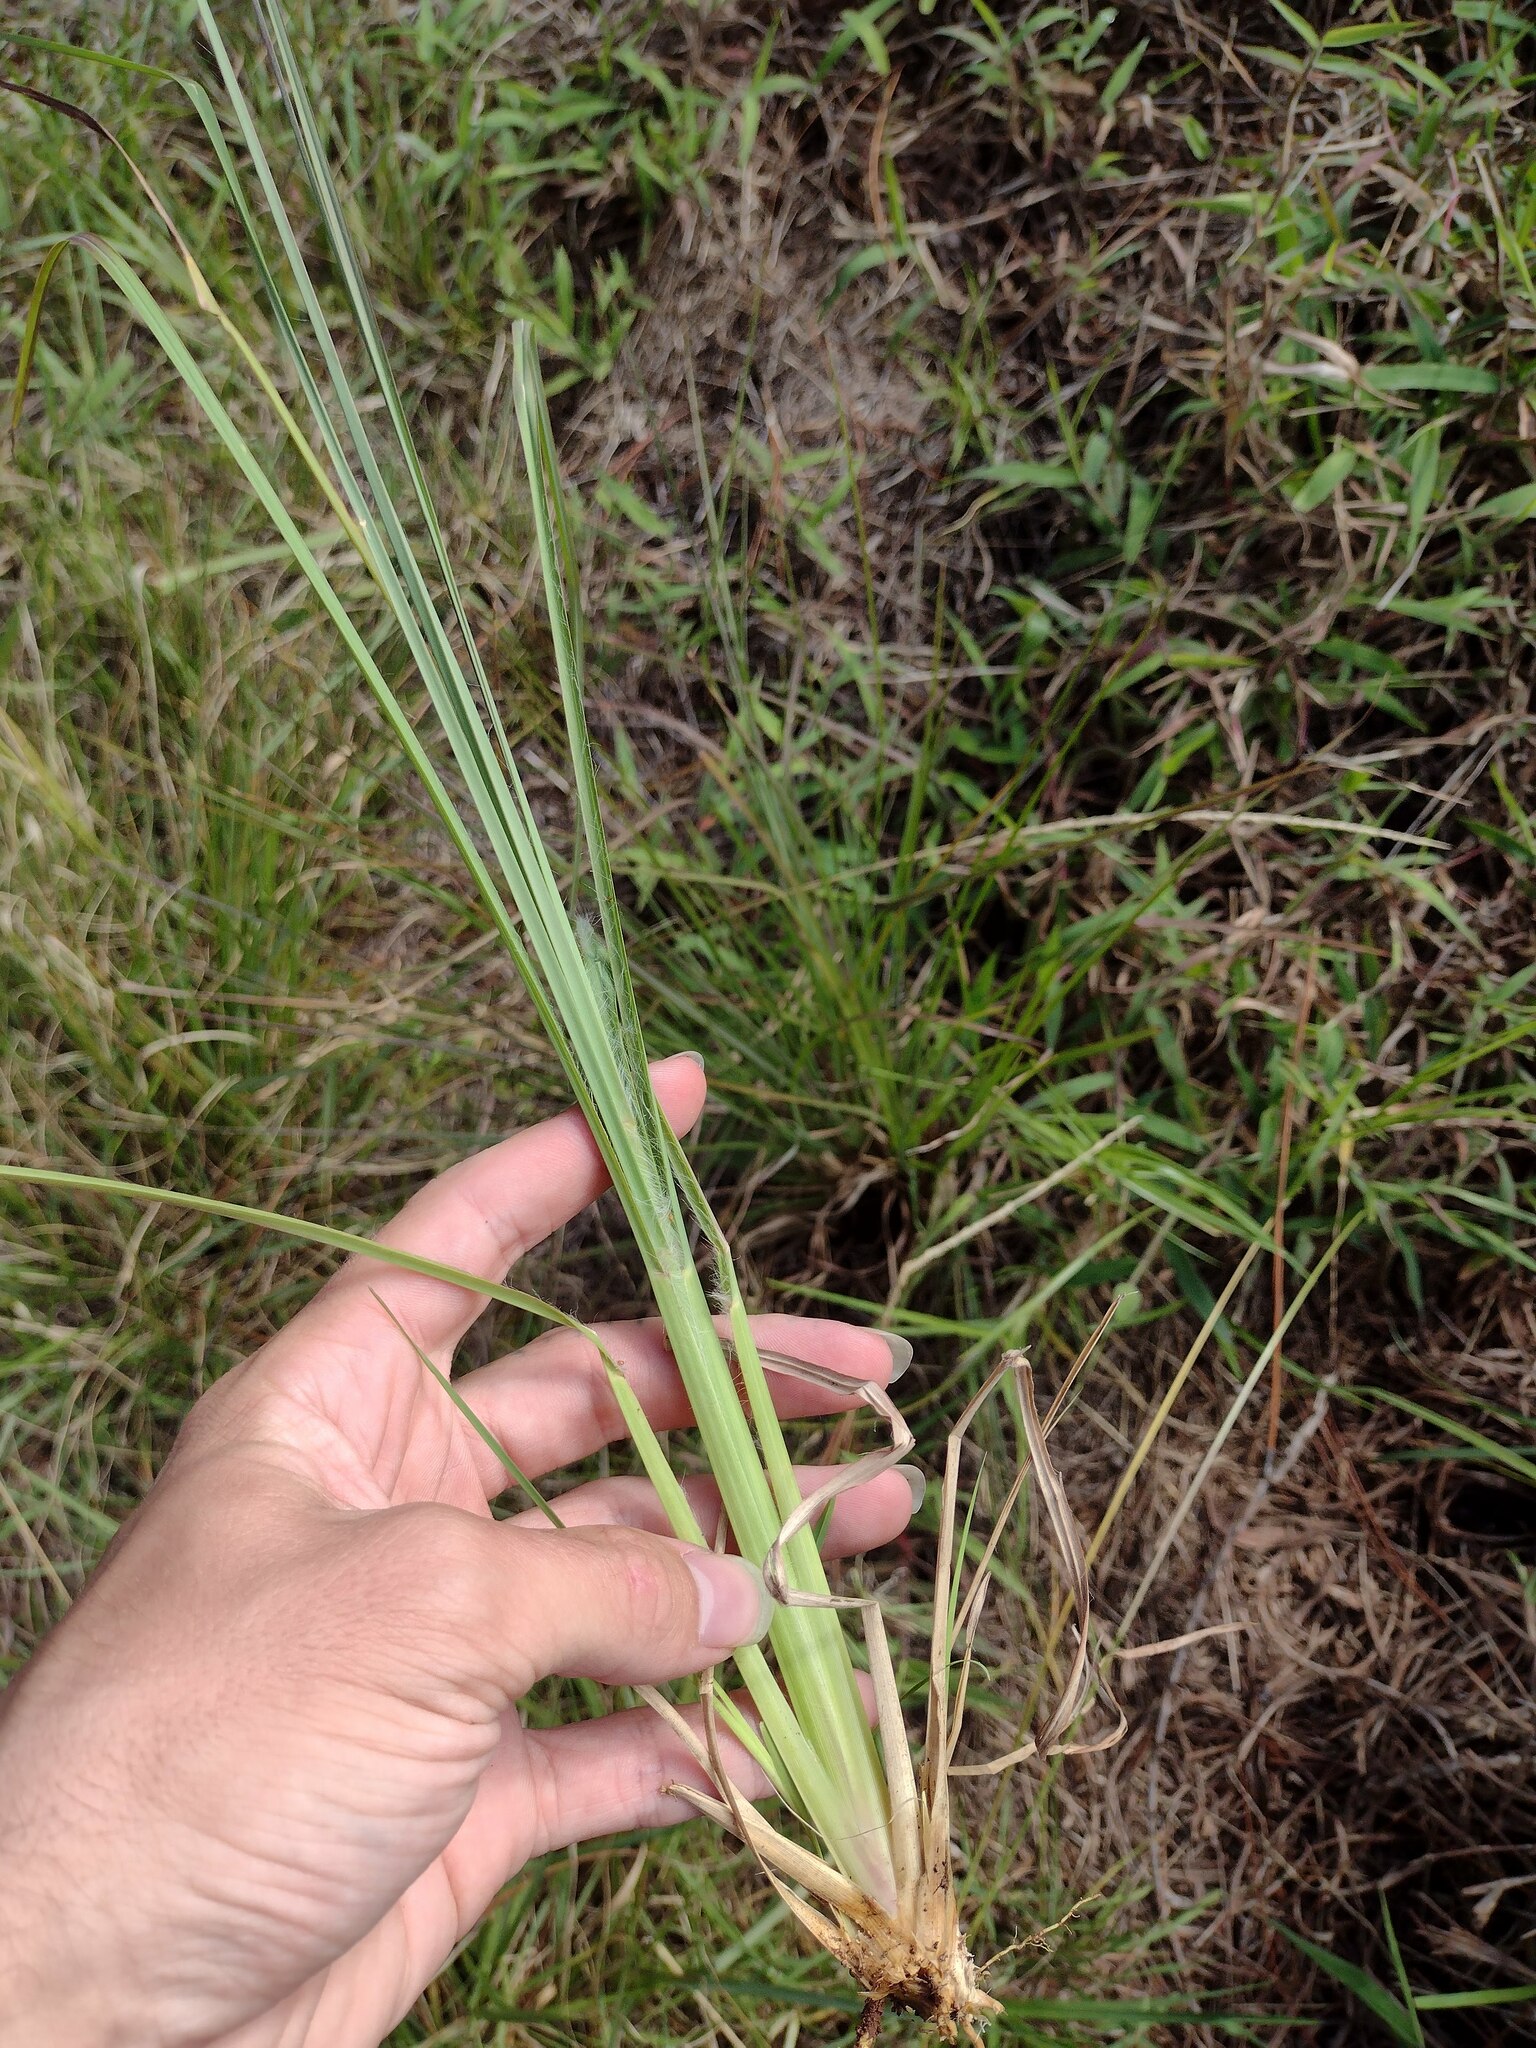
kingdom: Plantae
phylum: Tracheophyta
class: Liliopsida
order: Poales
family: Poaceae
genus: Andropogon
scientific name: Andropogon virginicus
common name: Broomsedge bluestem
